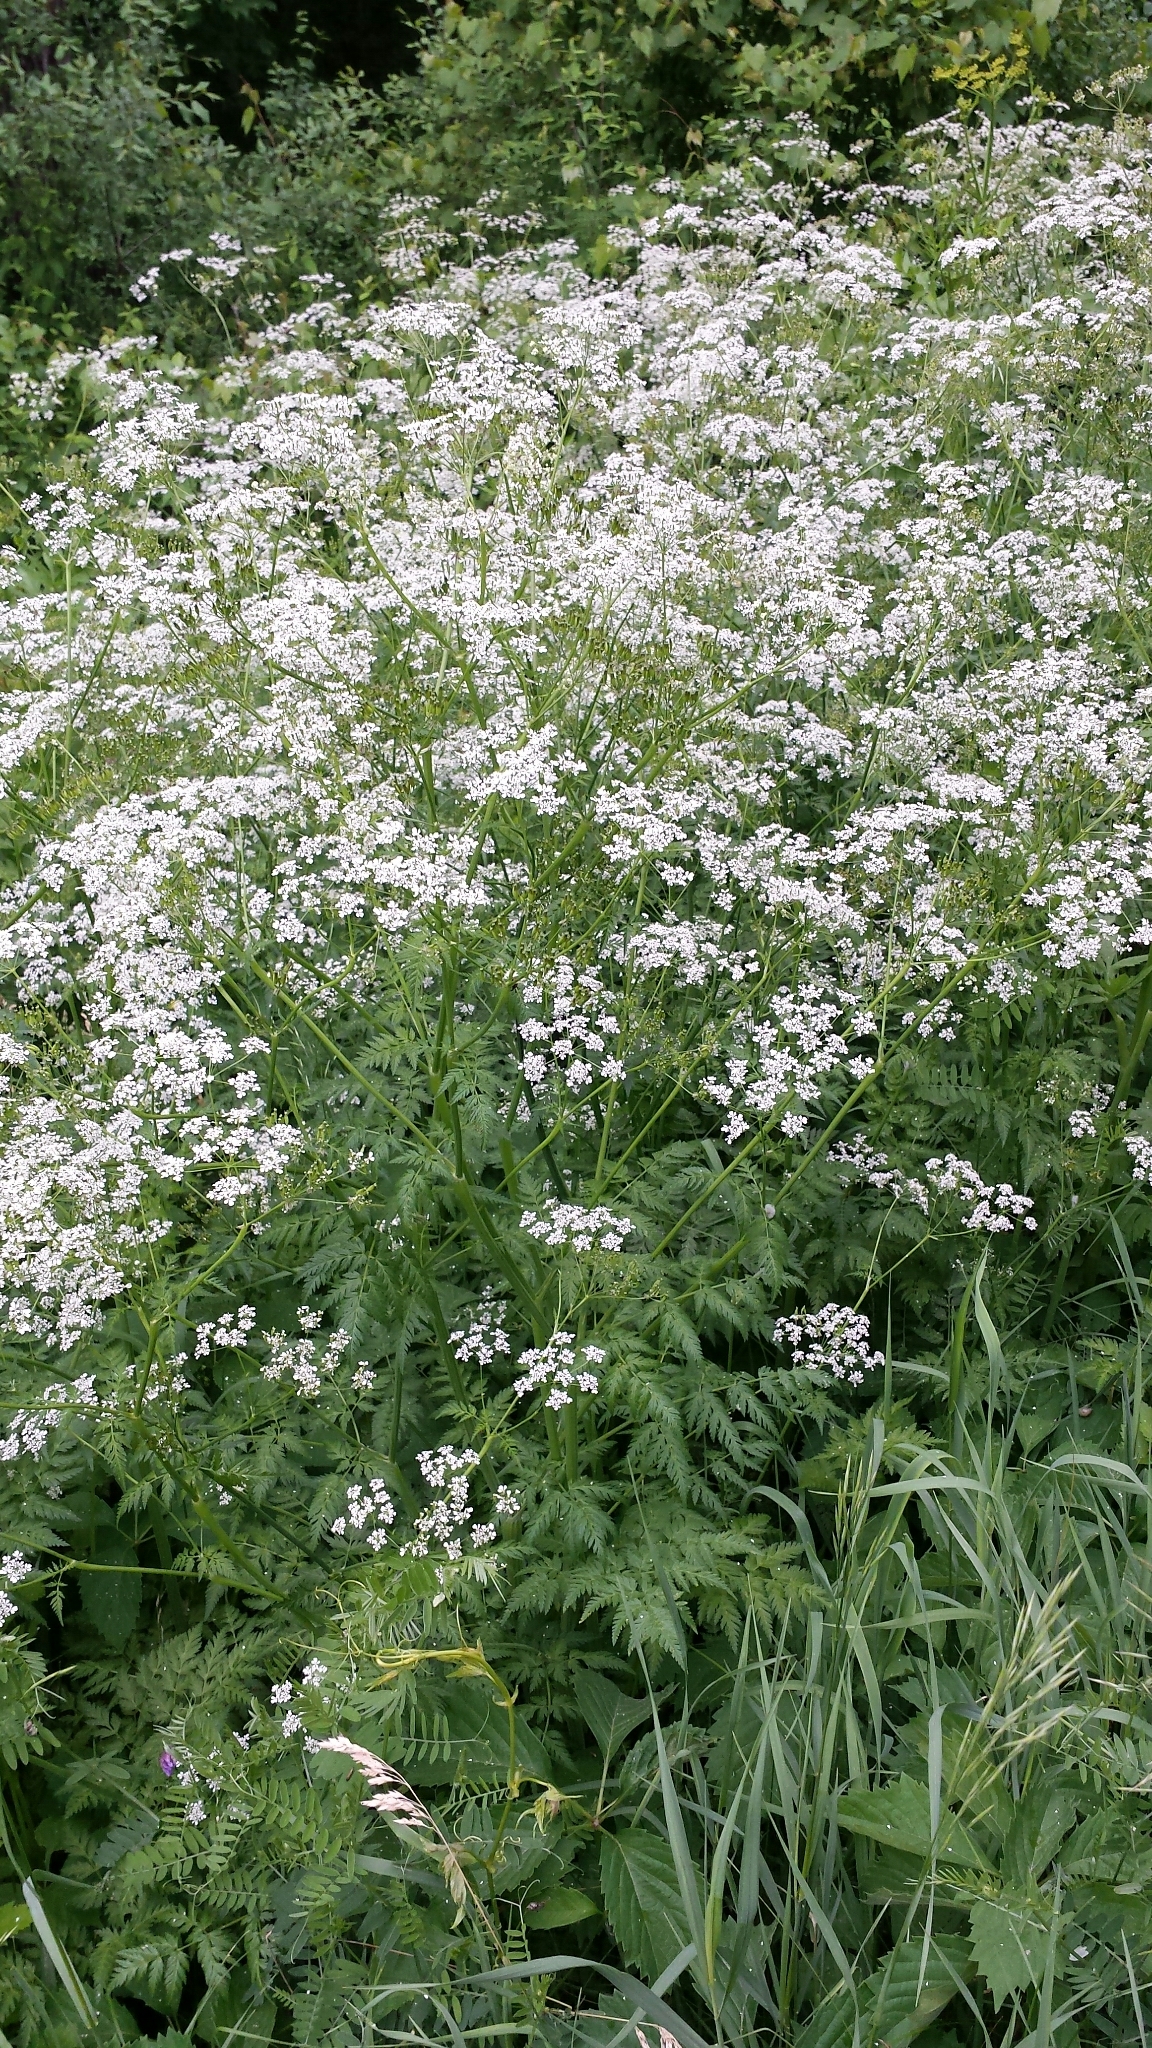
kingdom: Plantae
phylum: Tracheophyta
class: Magnoliopsida
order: Apiales
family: Apiaceae
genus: Anthriscus
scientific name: Anthriscus sylvestris
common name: Cow parsley
